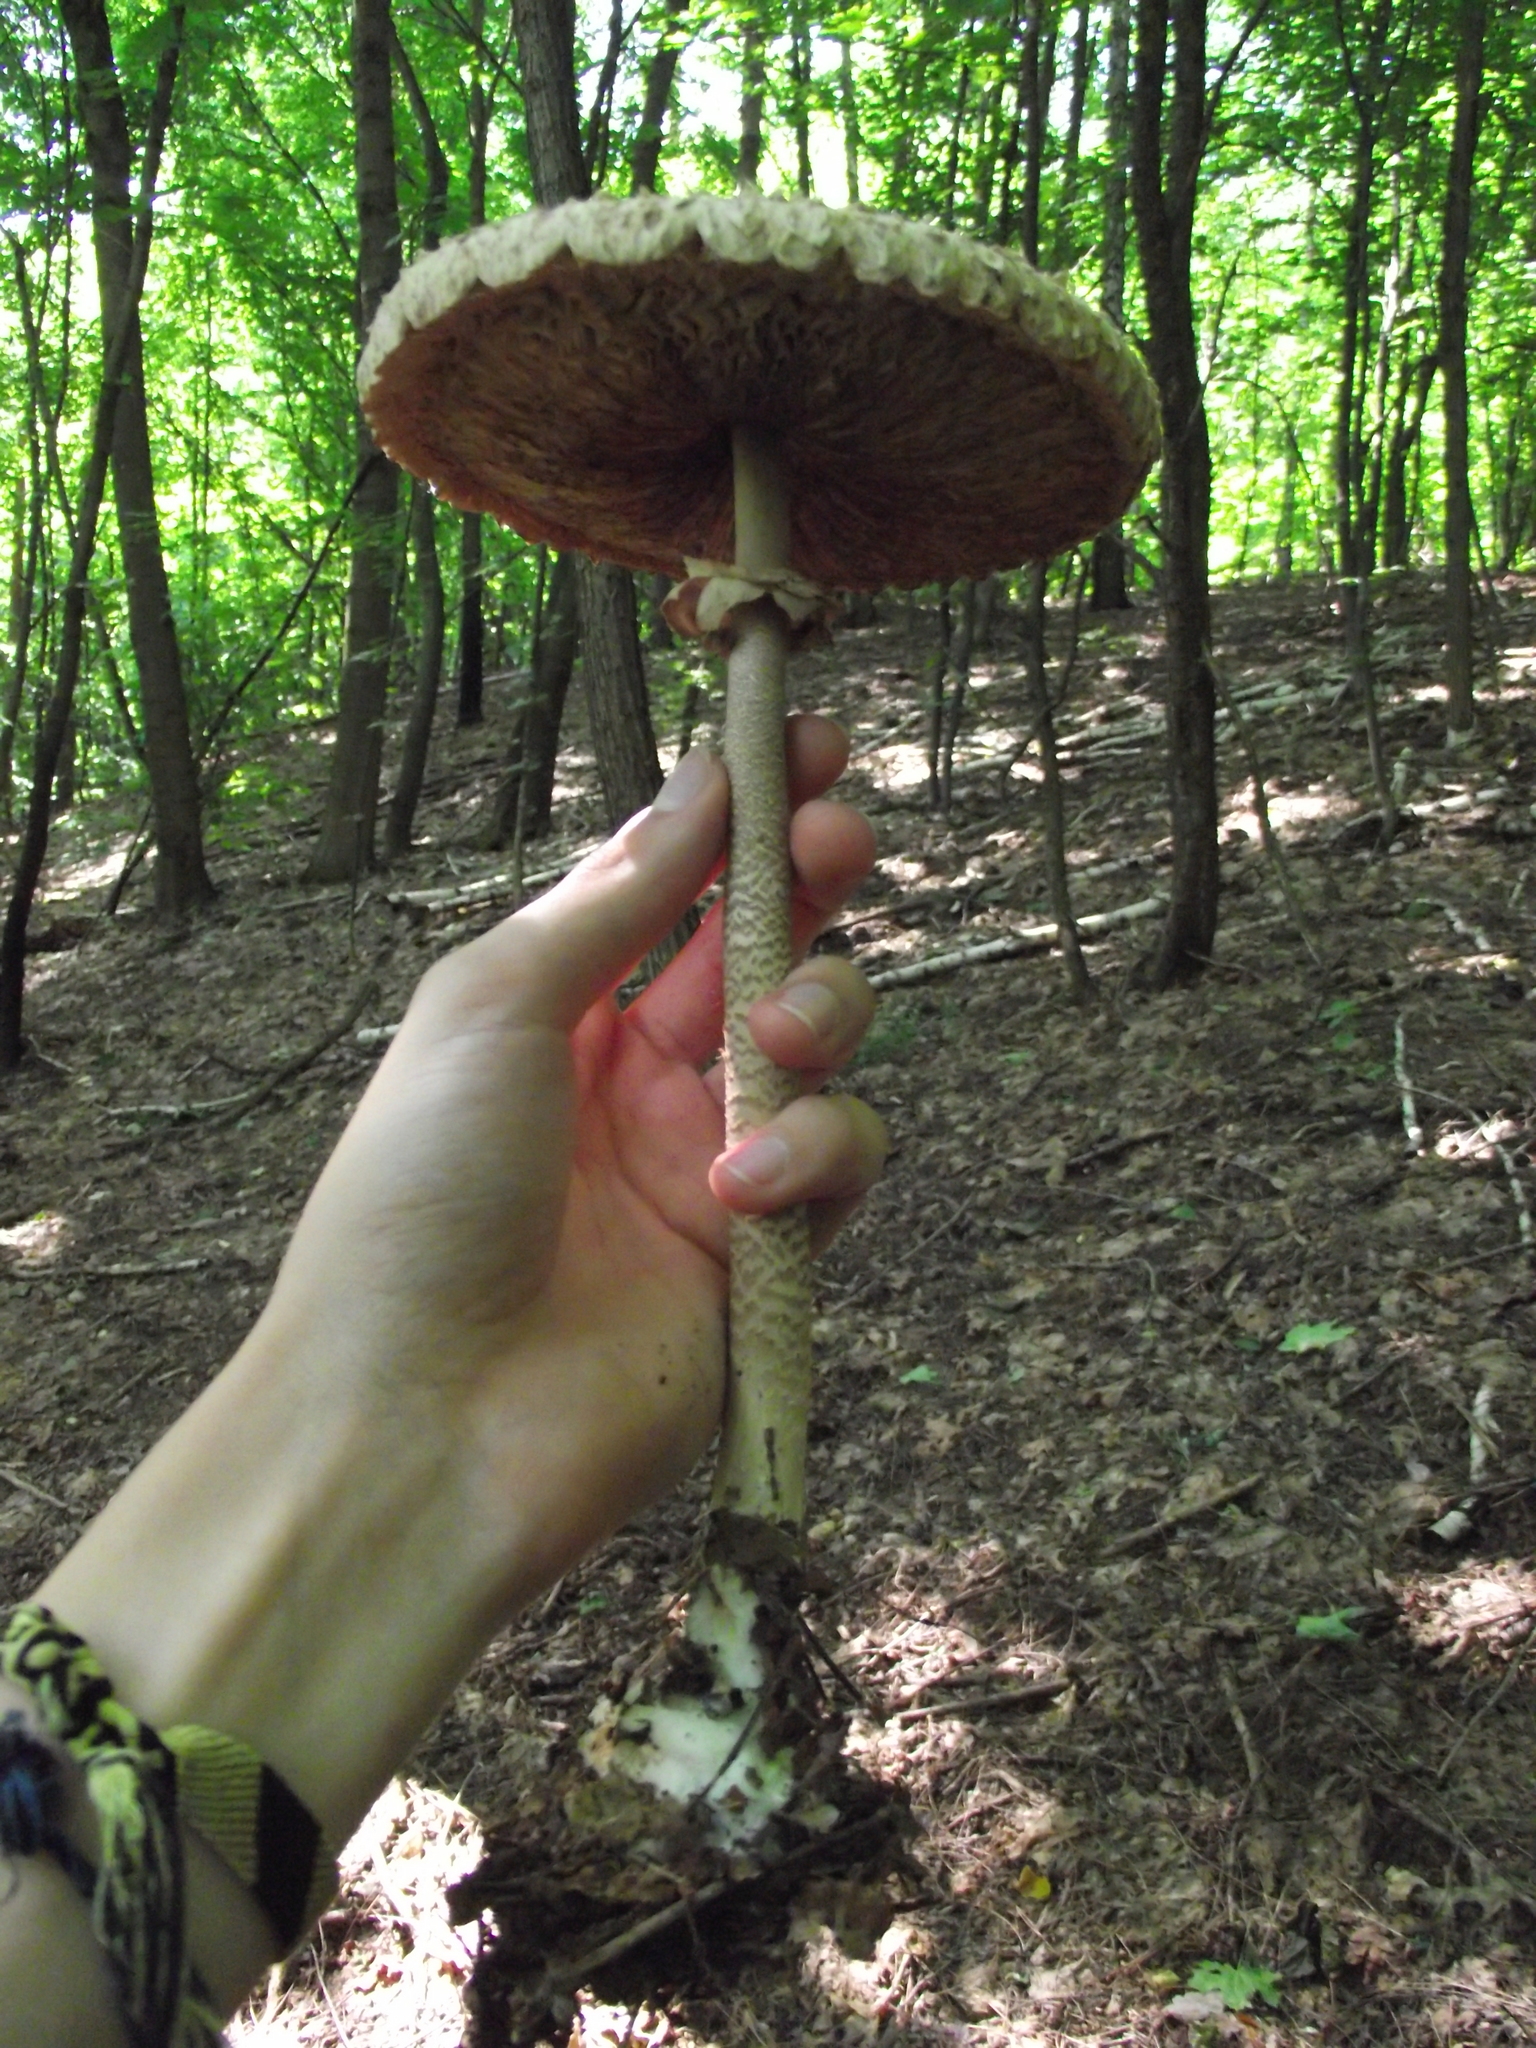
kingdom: Fungi
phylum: Basidiomycota
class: Agaricomycetes
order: Agaricales
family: Agaricaceae
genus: Macrolepiota
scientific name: Macrolepiota procera
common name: Parasol
